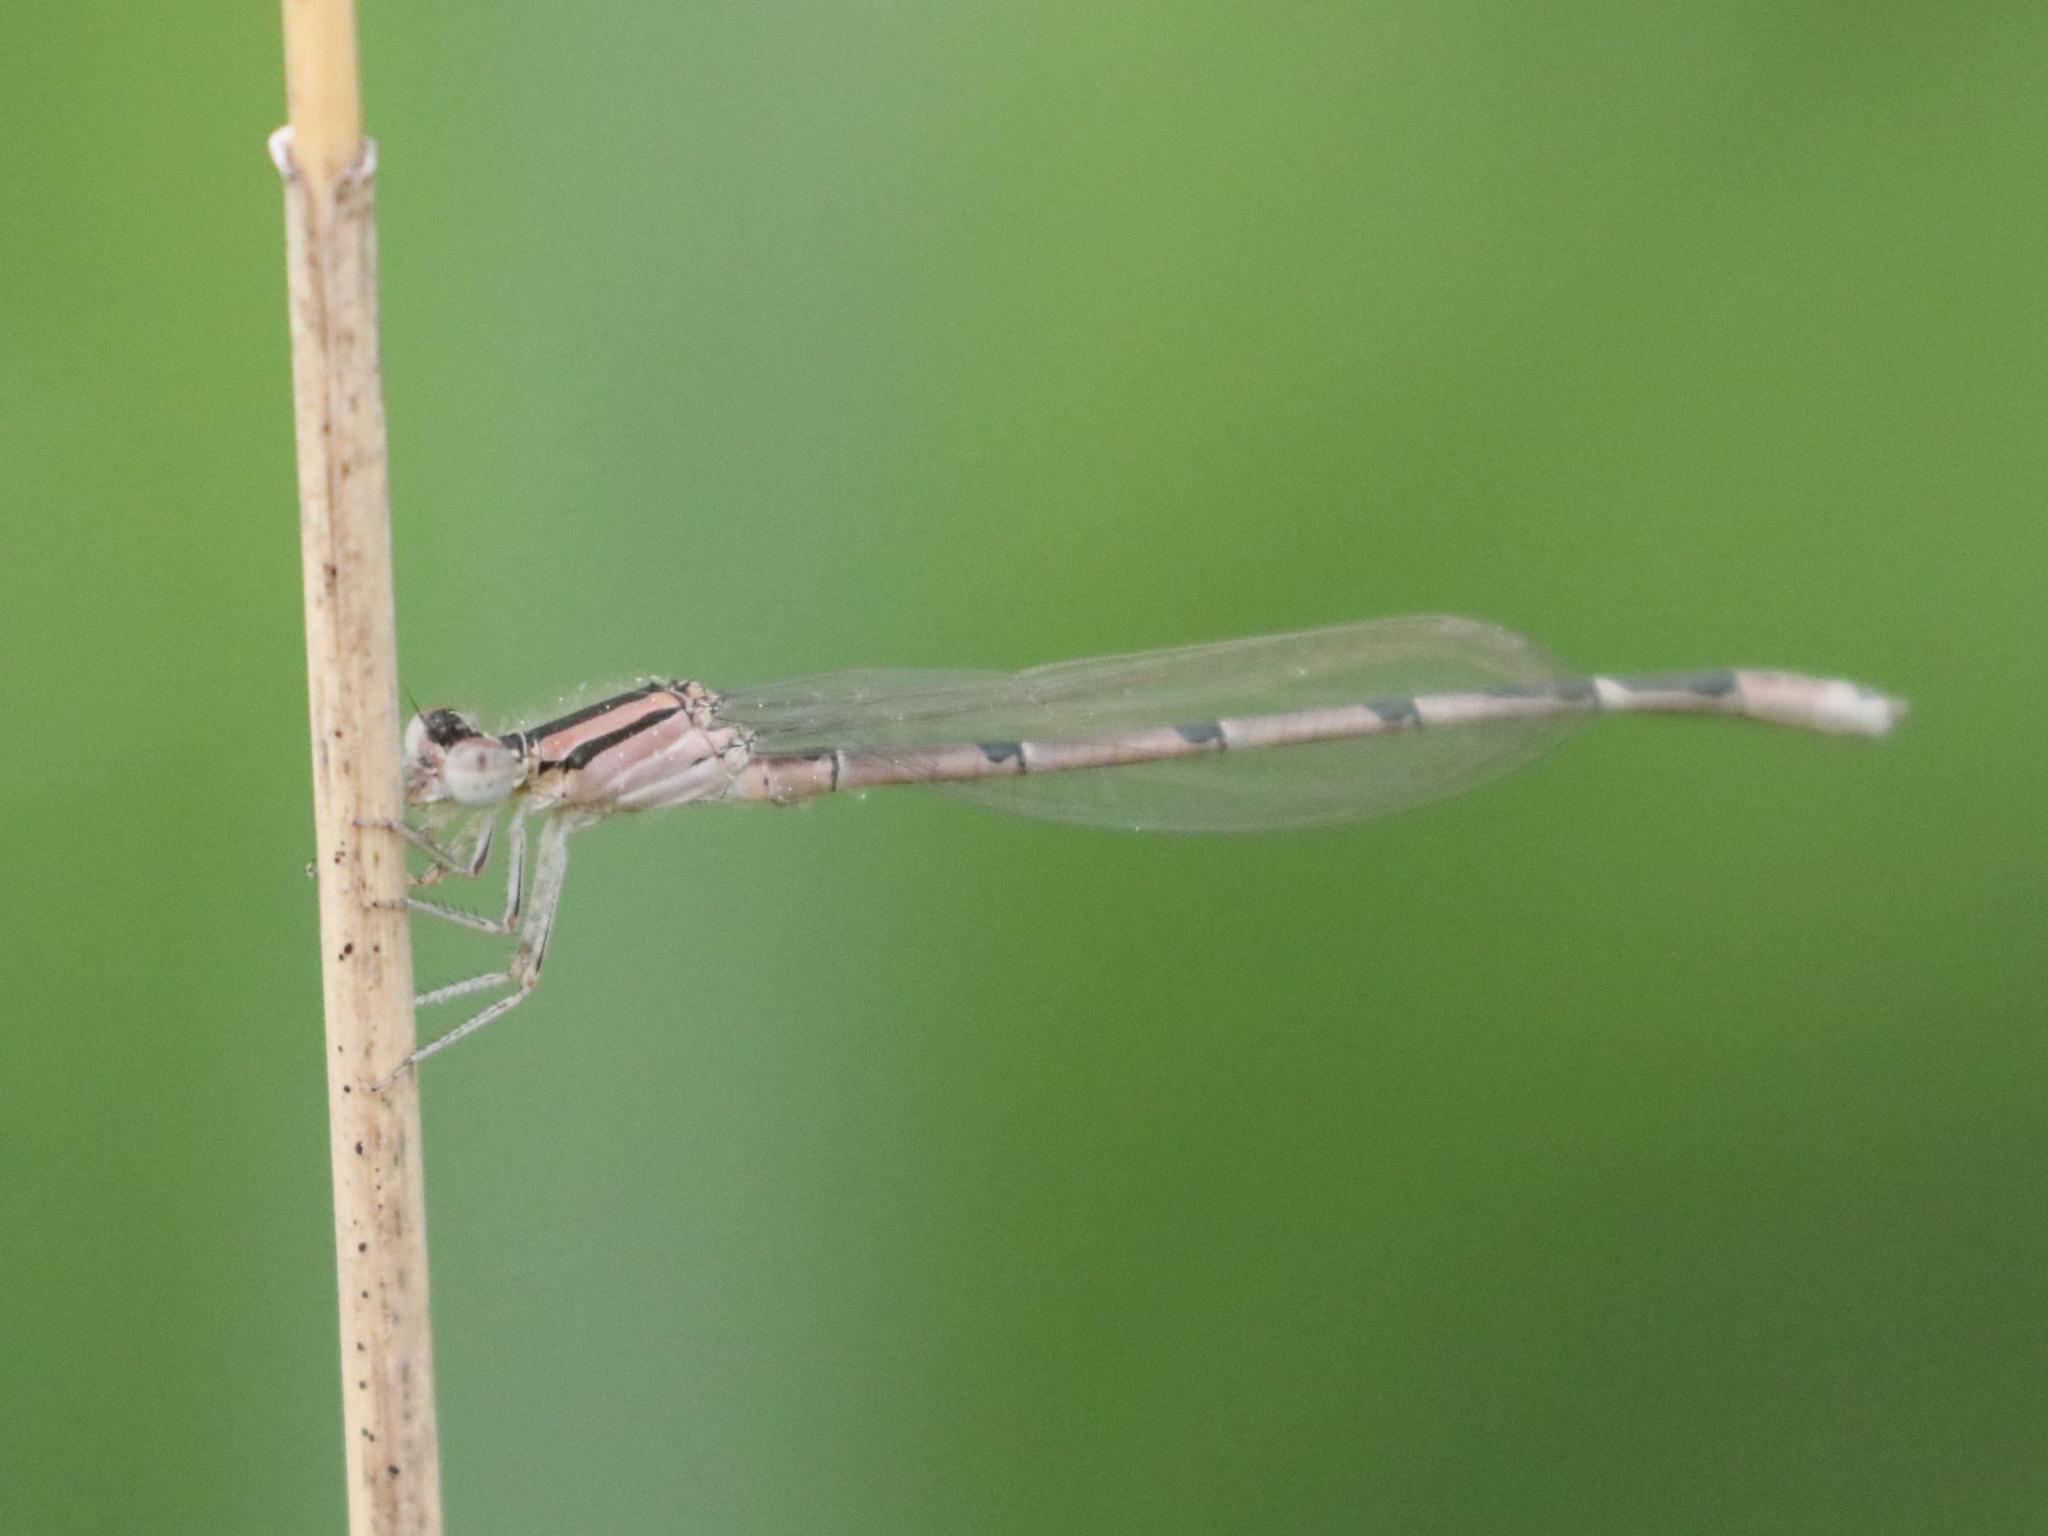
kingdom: Animalia
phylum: Arthropoda
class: Insecta
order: Odonata
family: Coenagrionidae
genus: Enallagma
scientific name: Enallagma civile
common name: Damselfly
